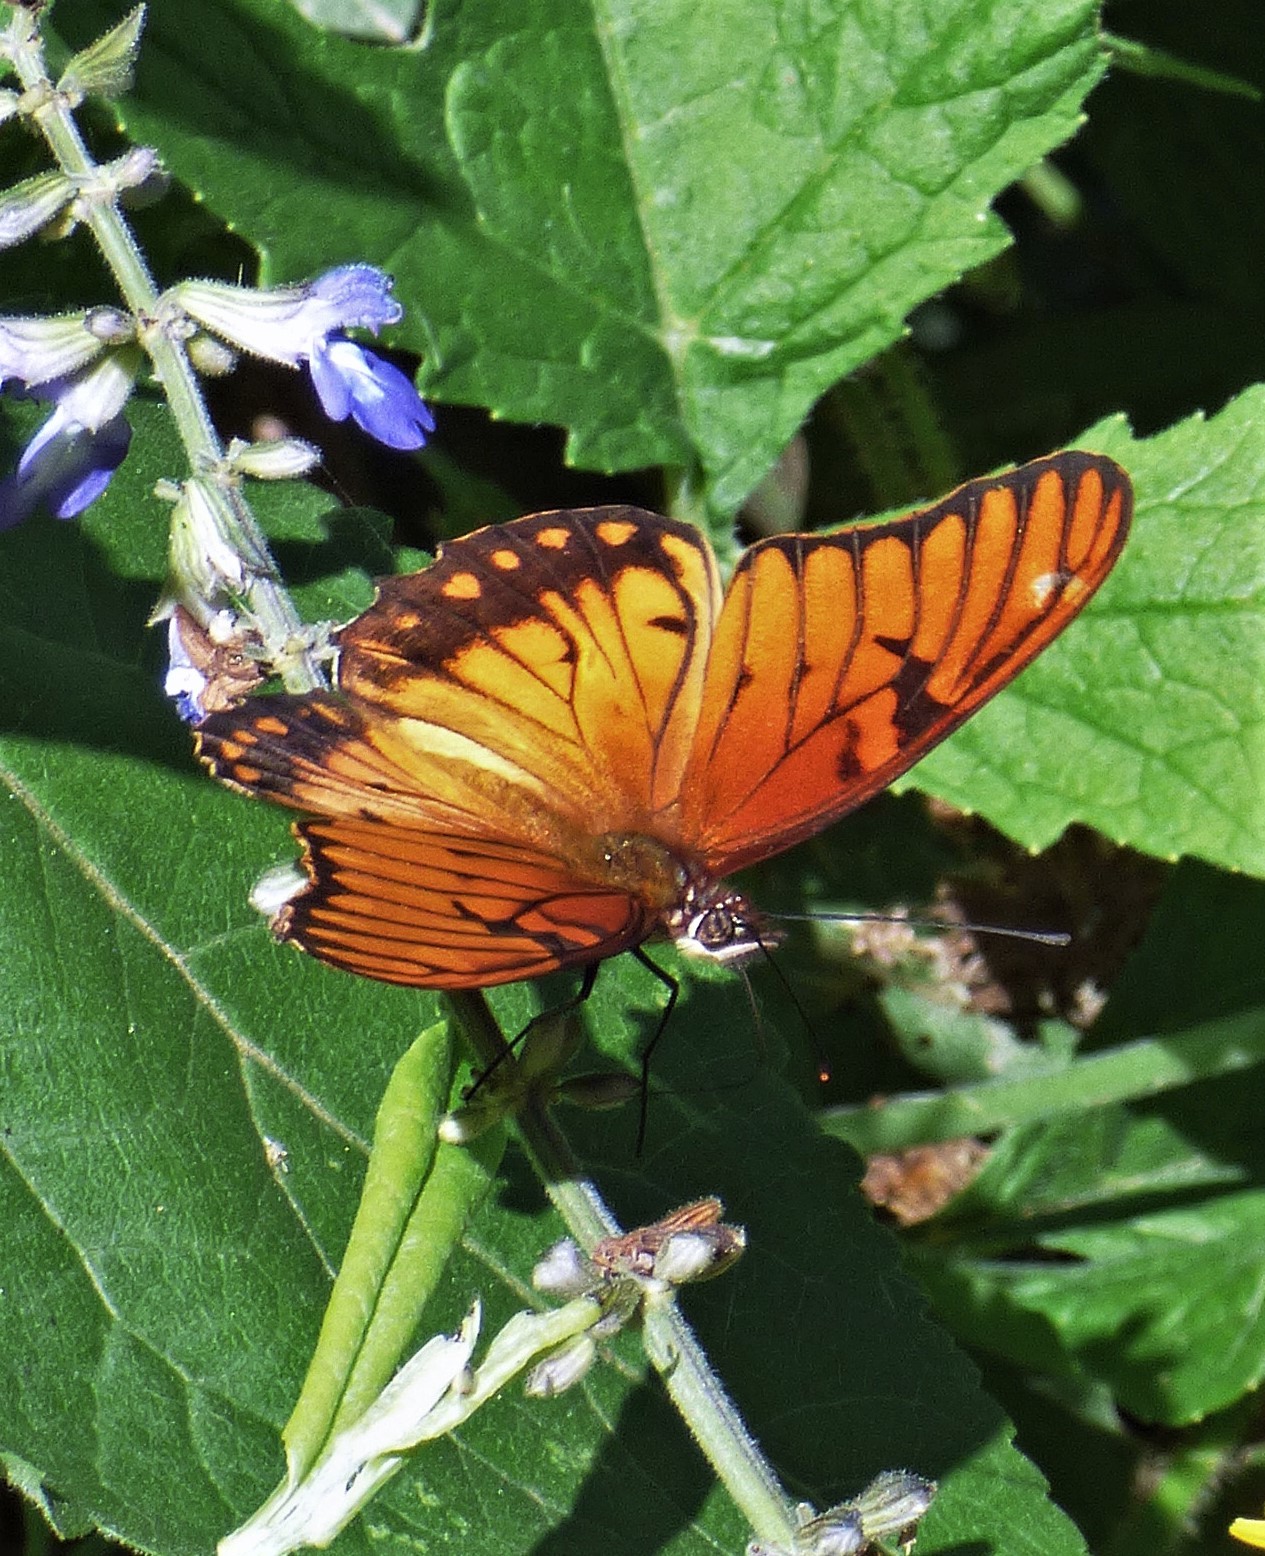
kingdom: Animalia
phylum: Arthropoda
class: Insecta
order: Lepidoptera
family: Nymphalidae
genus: Dione
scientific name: Dione moneta
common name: Mexican silverspot
